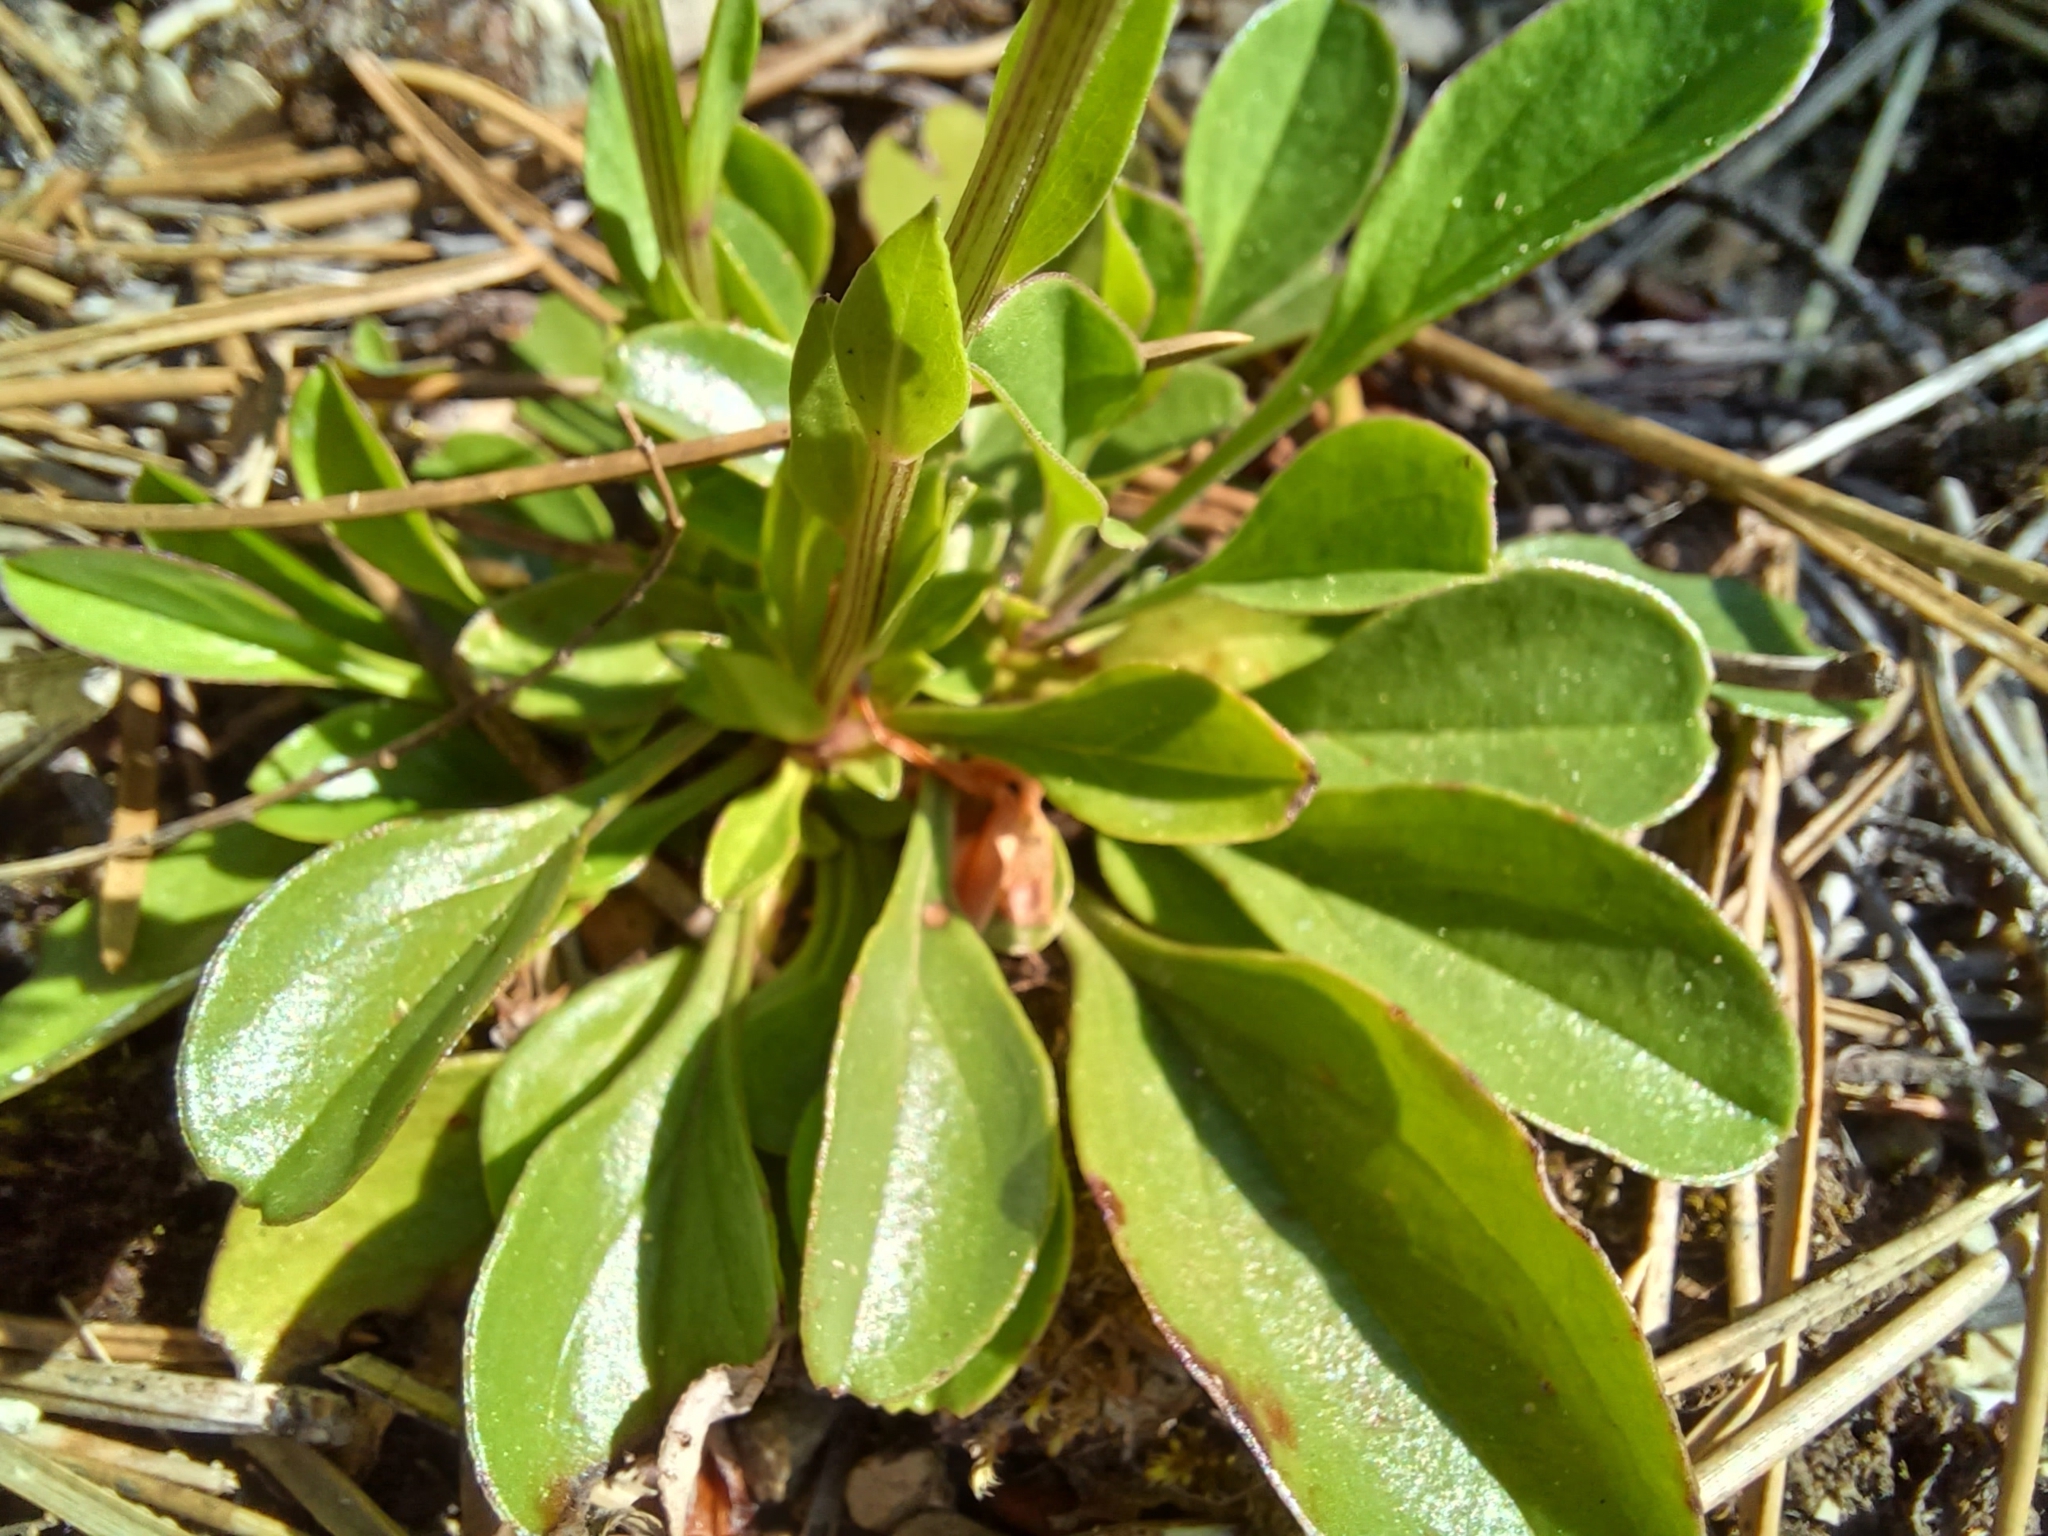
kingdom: Plantae
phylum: Tracheophyta
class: Magnoliopsida
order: Lamiales
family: Plantaginaceae
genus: Globularia
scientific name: Globularia bisnagarica
